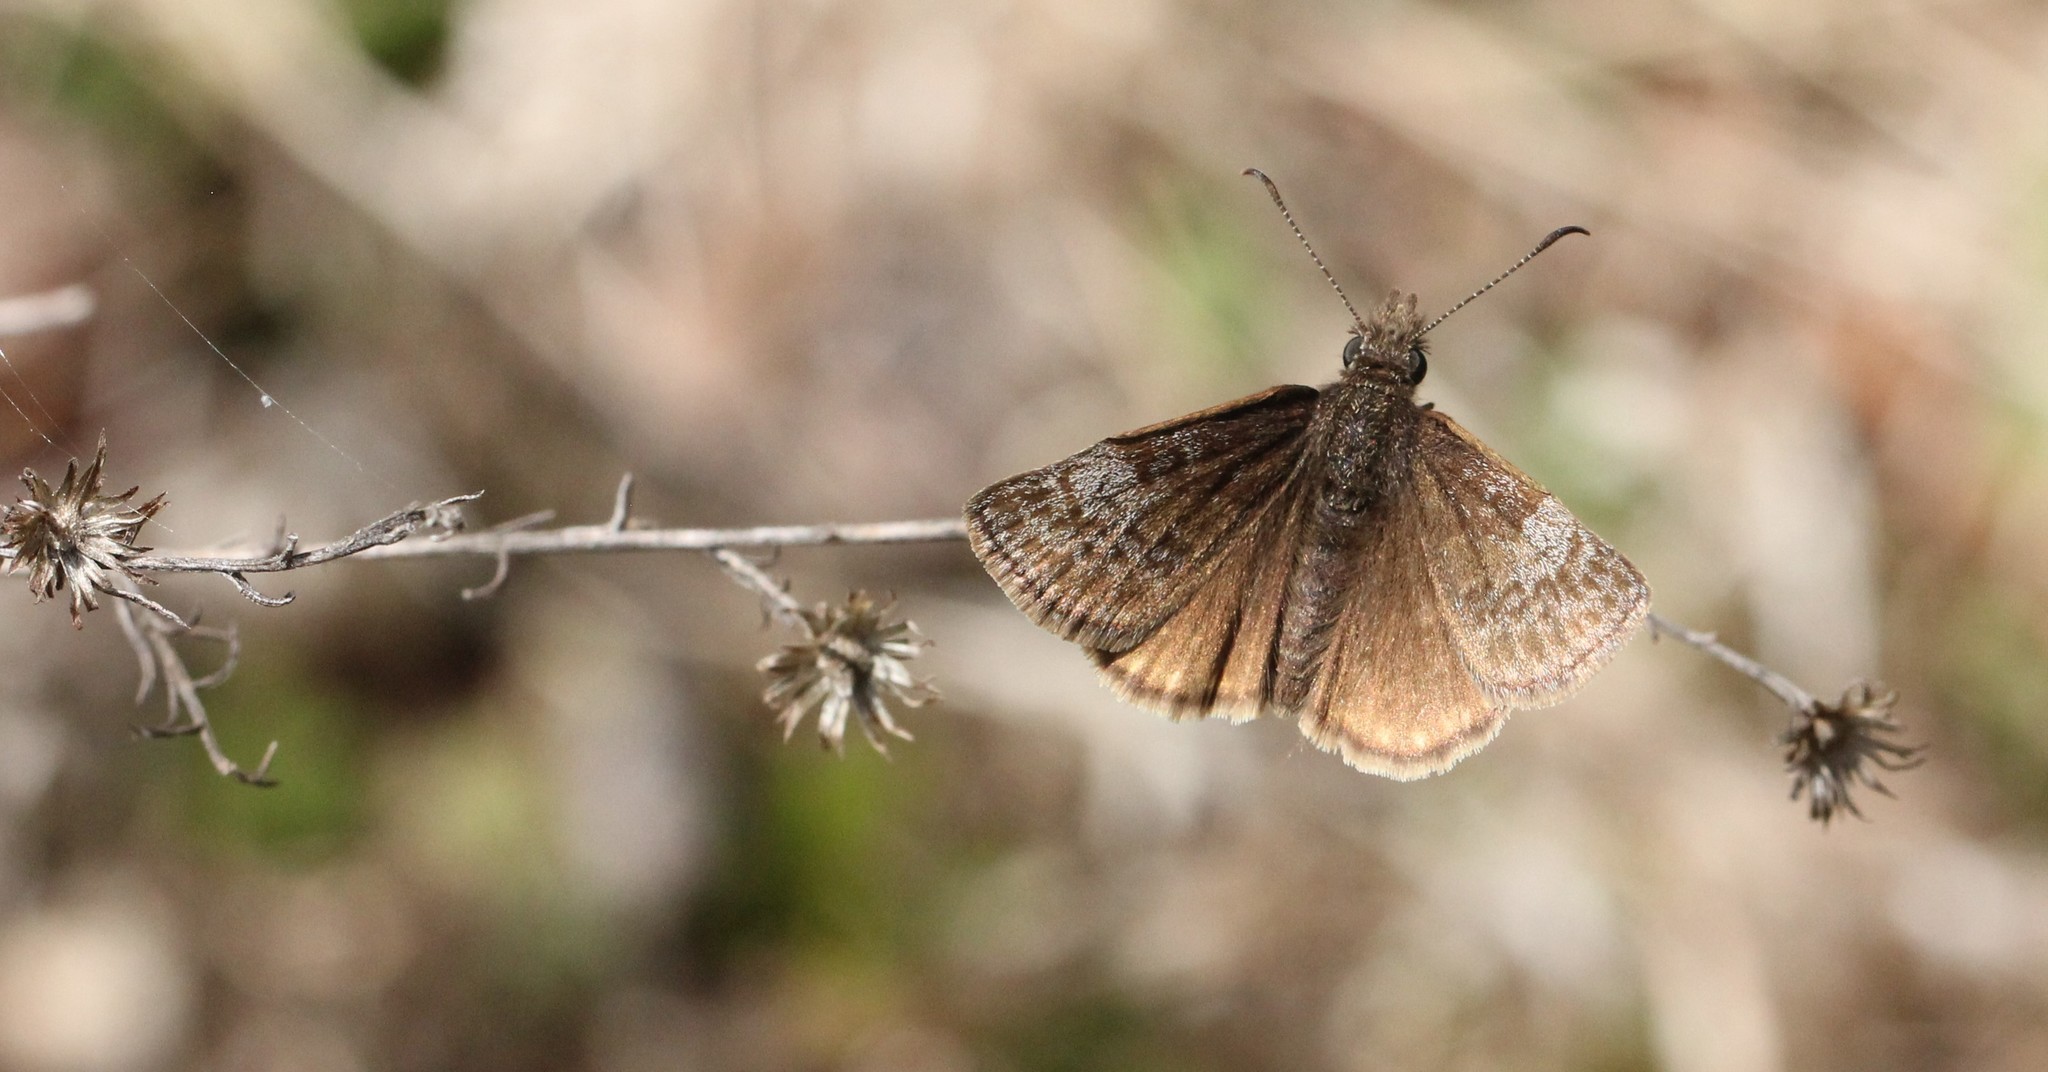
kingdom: Animalia
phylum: Arthropoda
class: Insecta
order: Lepidoptera
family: Hesperiidae
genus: Erynnis
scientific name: Erynnis icelus
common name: Dreamy duskywing
